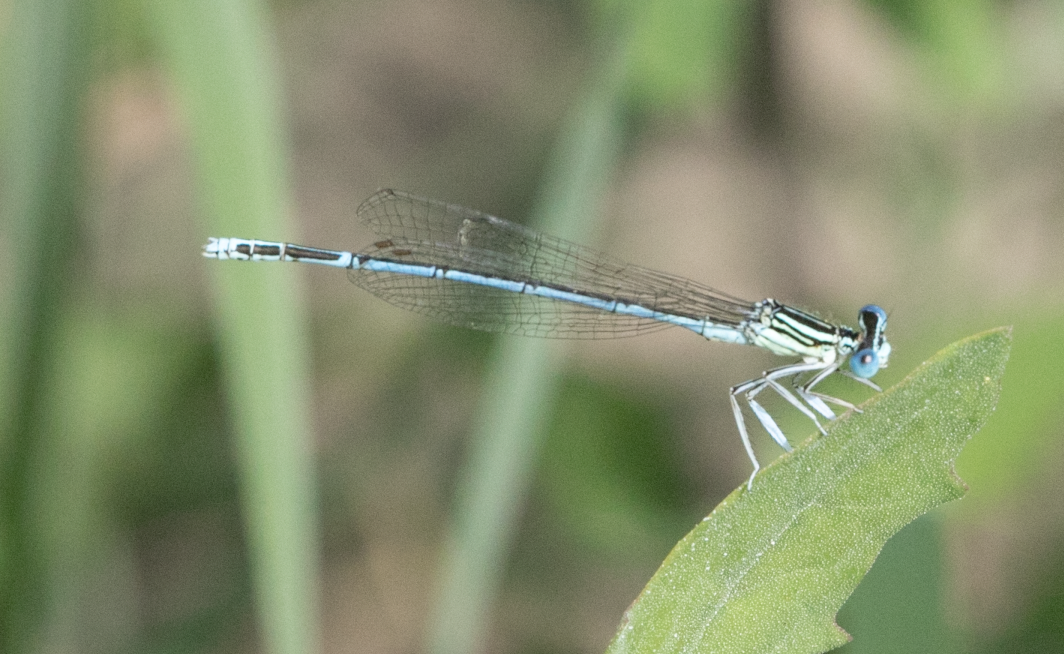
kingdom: Animalia
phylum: Arthropoda
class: Insecta
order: Odonata
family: Platycnemididae
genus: Platycnemis
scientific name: Platycnemis pennipes
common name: White-legged damselfly
